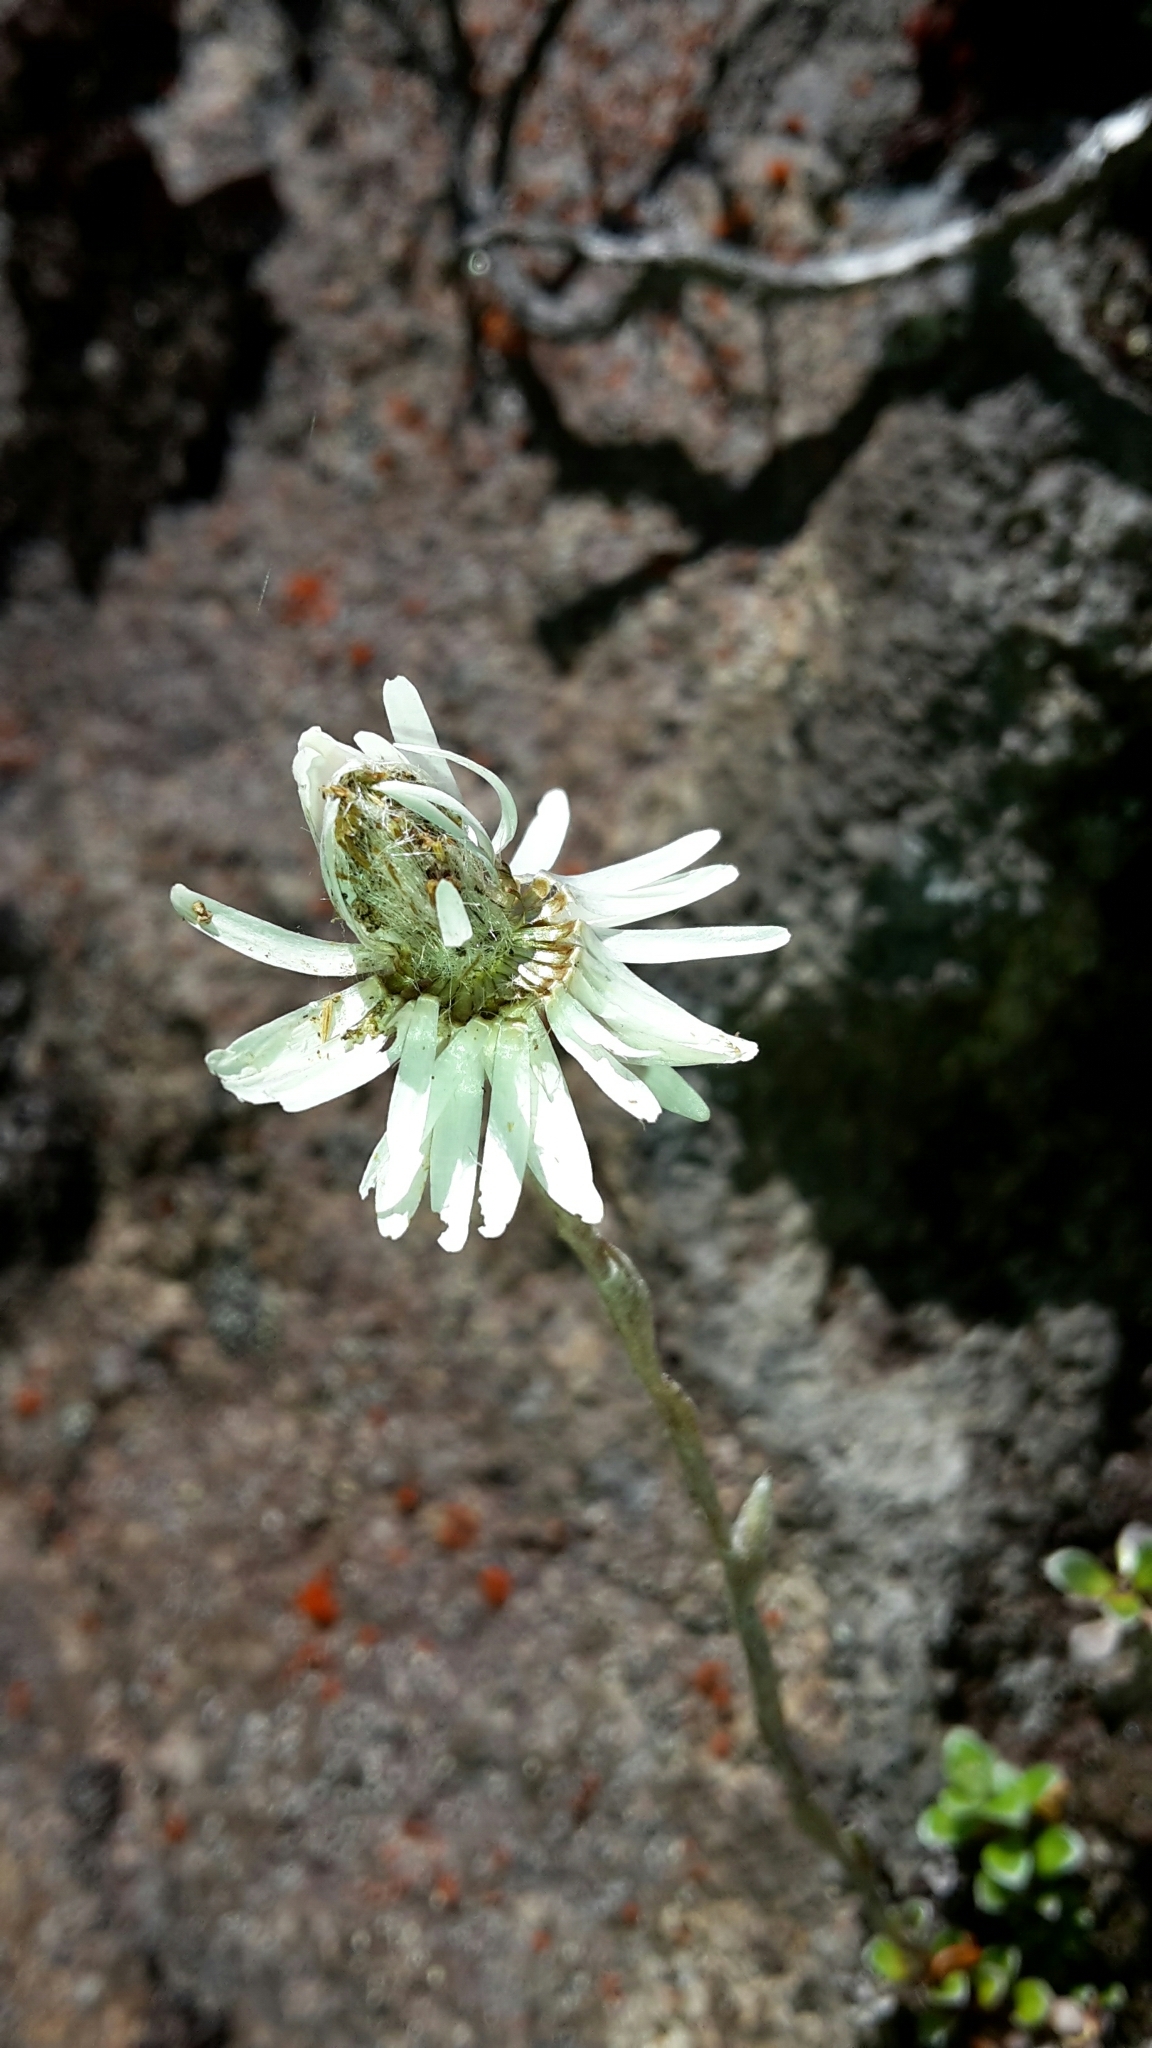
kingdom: Plantae
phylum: Tracheophyta
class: Magnoliopsida
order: Asterales
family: Asteraceae
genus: Anaphalioides
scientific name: Anaphalioides bellidioides
